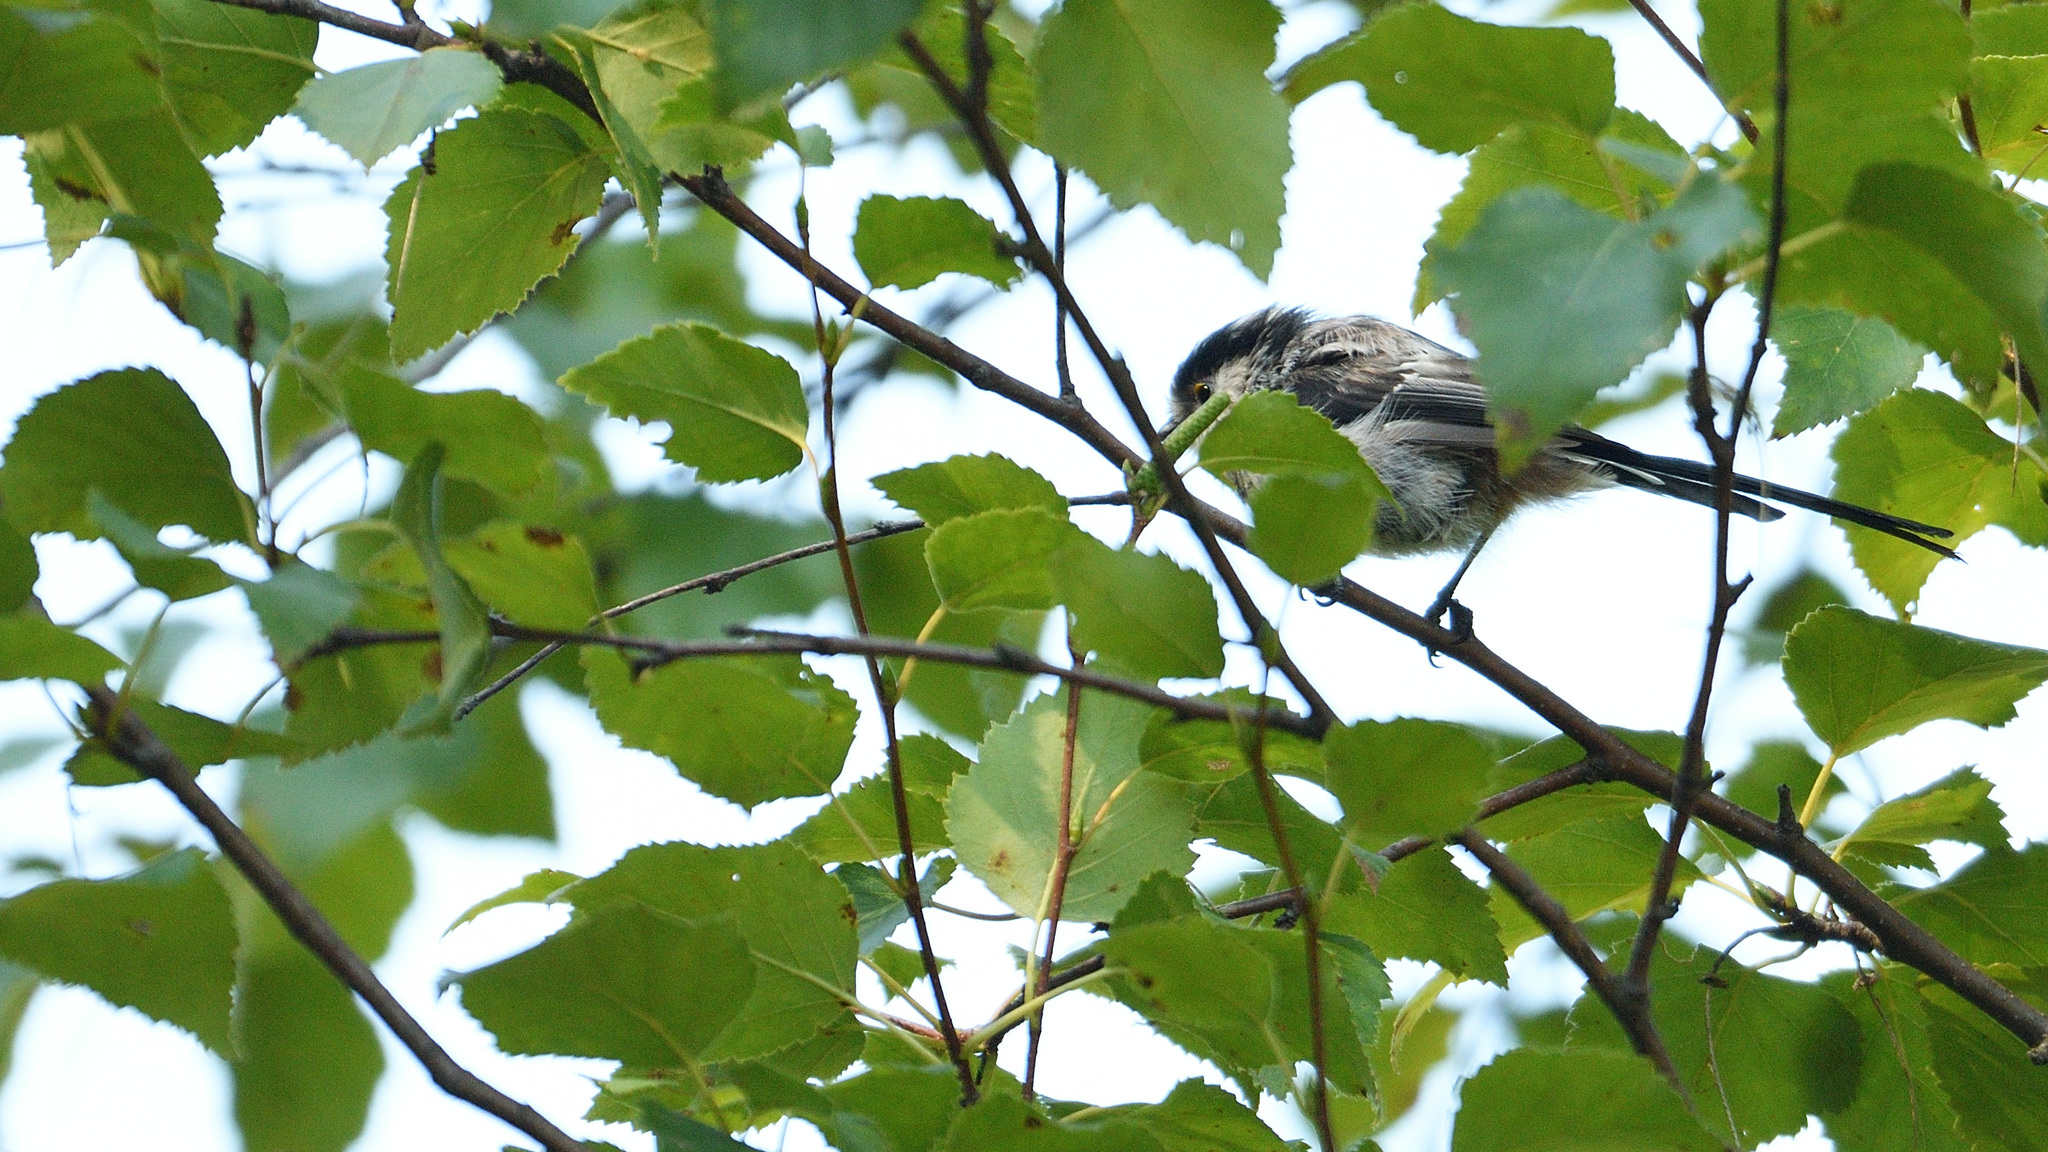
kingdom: Animalia
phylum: Chordata
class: Aves
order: Passeriformes
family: Aegithalidae
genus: Aegithalos
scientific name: Aegithalos caudatus
